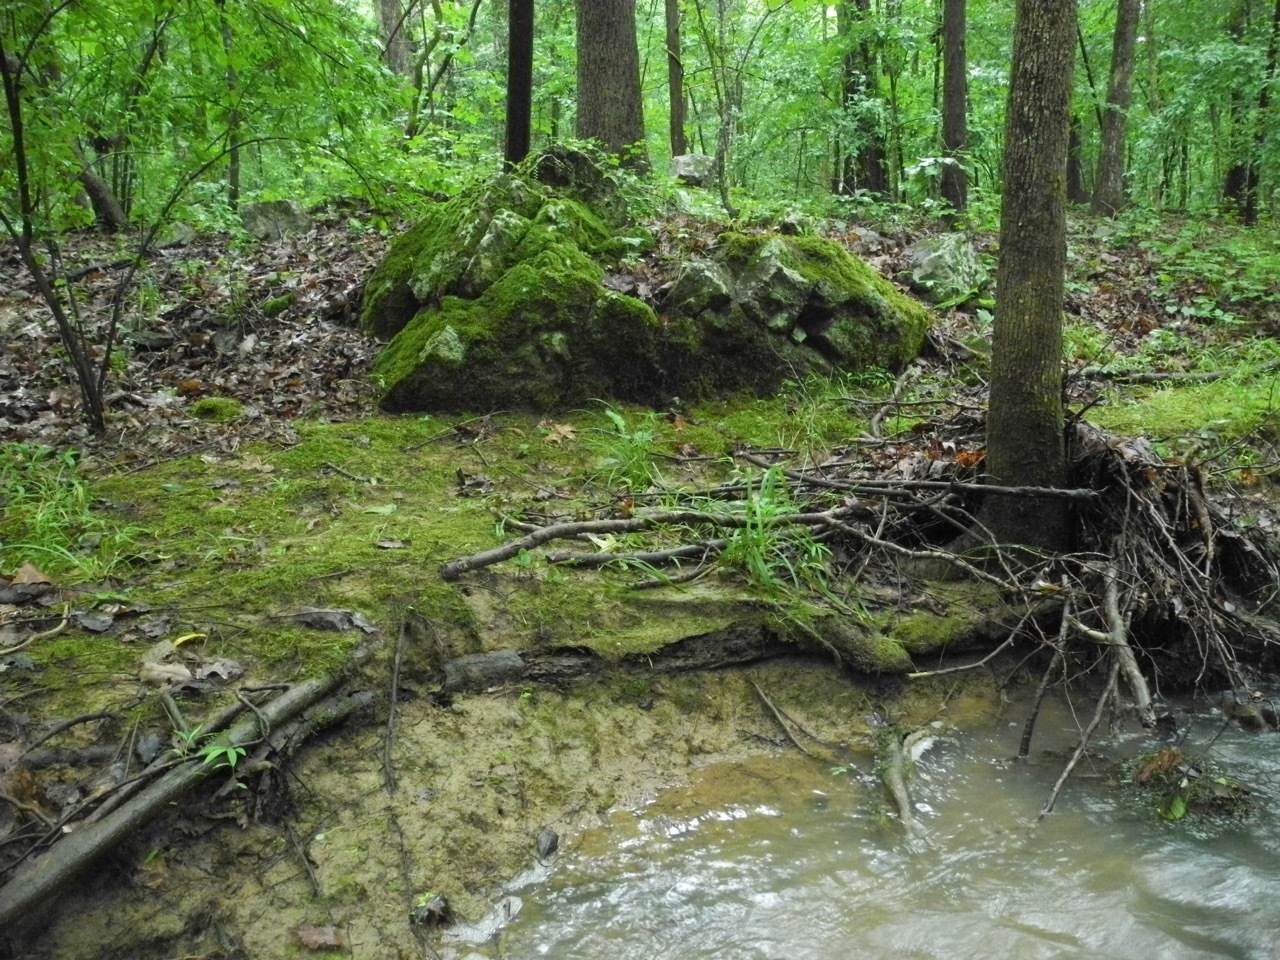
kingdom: Plantae
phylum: Tracheophyta
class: Polypodiopsida
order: Polypodiales
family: Aspleniaceae
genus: Asplenium
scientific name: Asplenium platyneuron
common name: Ebony spleenwort
